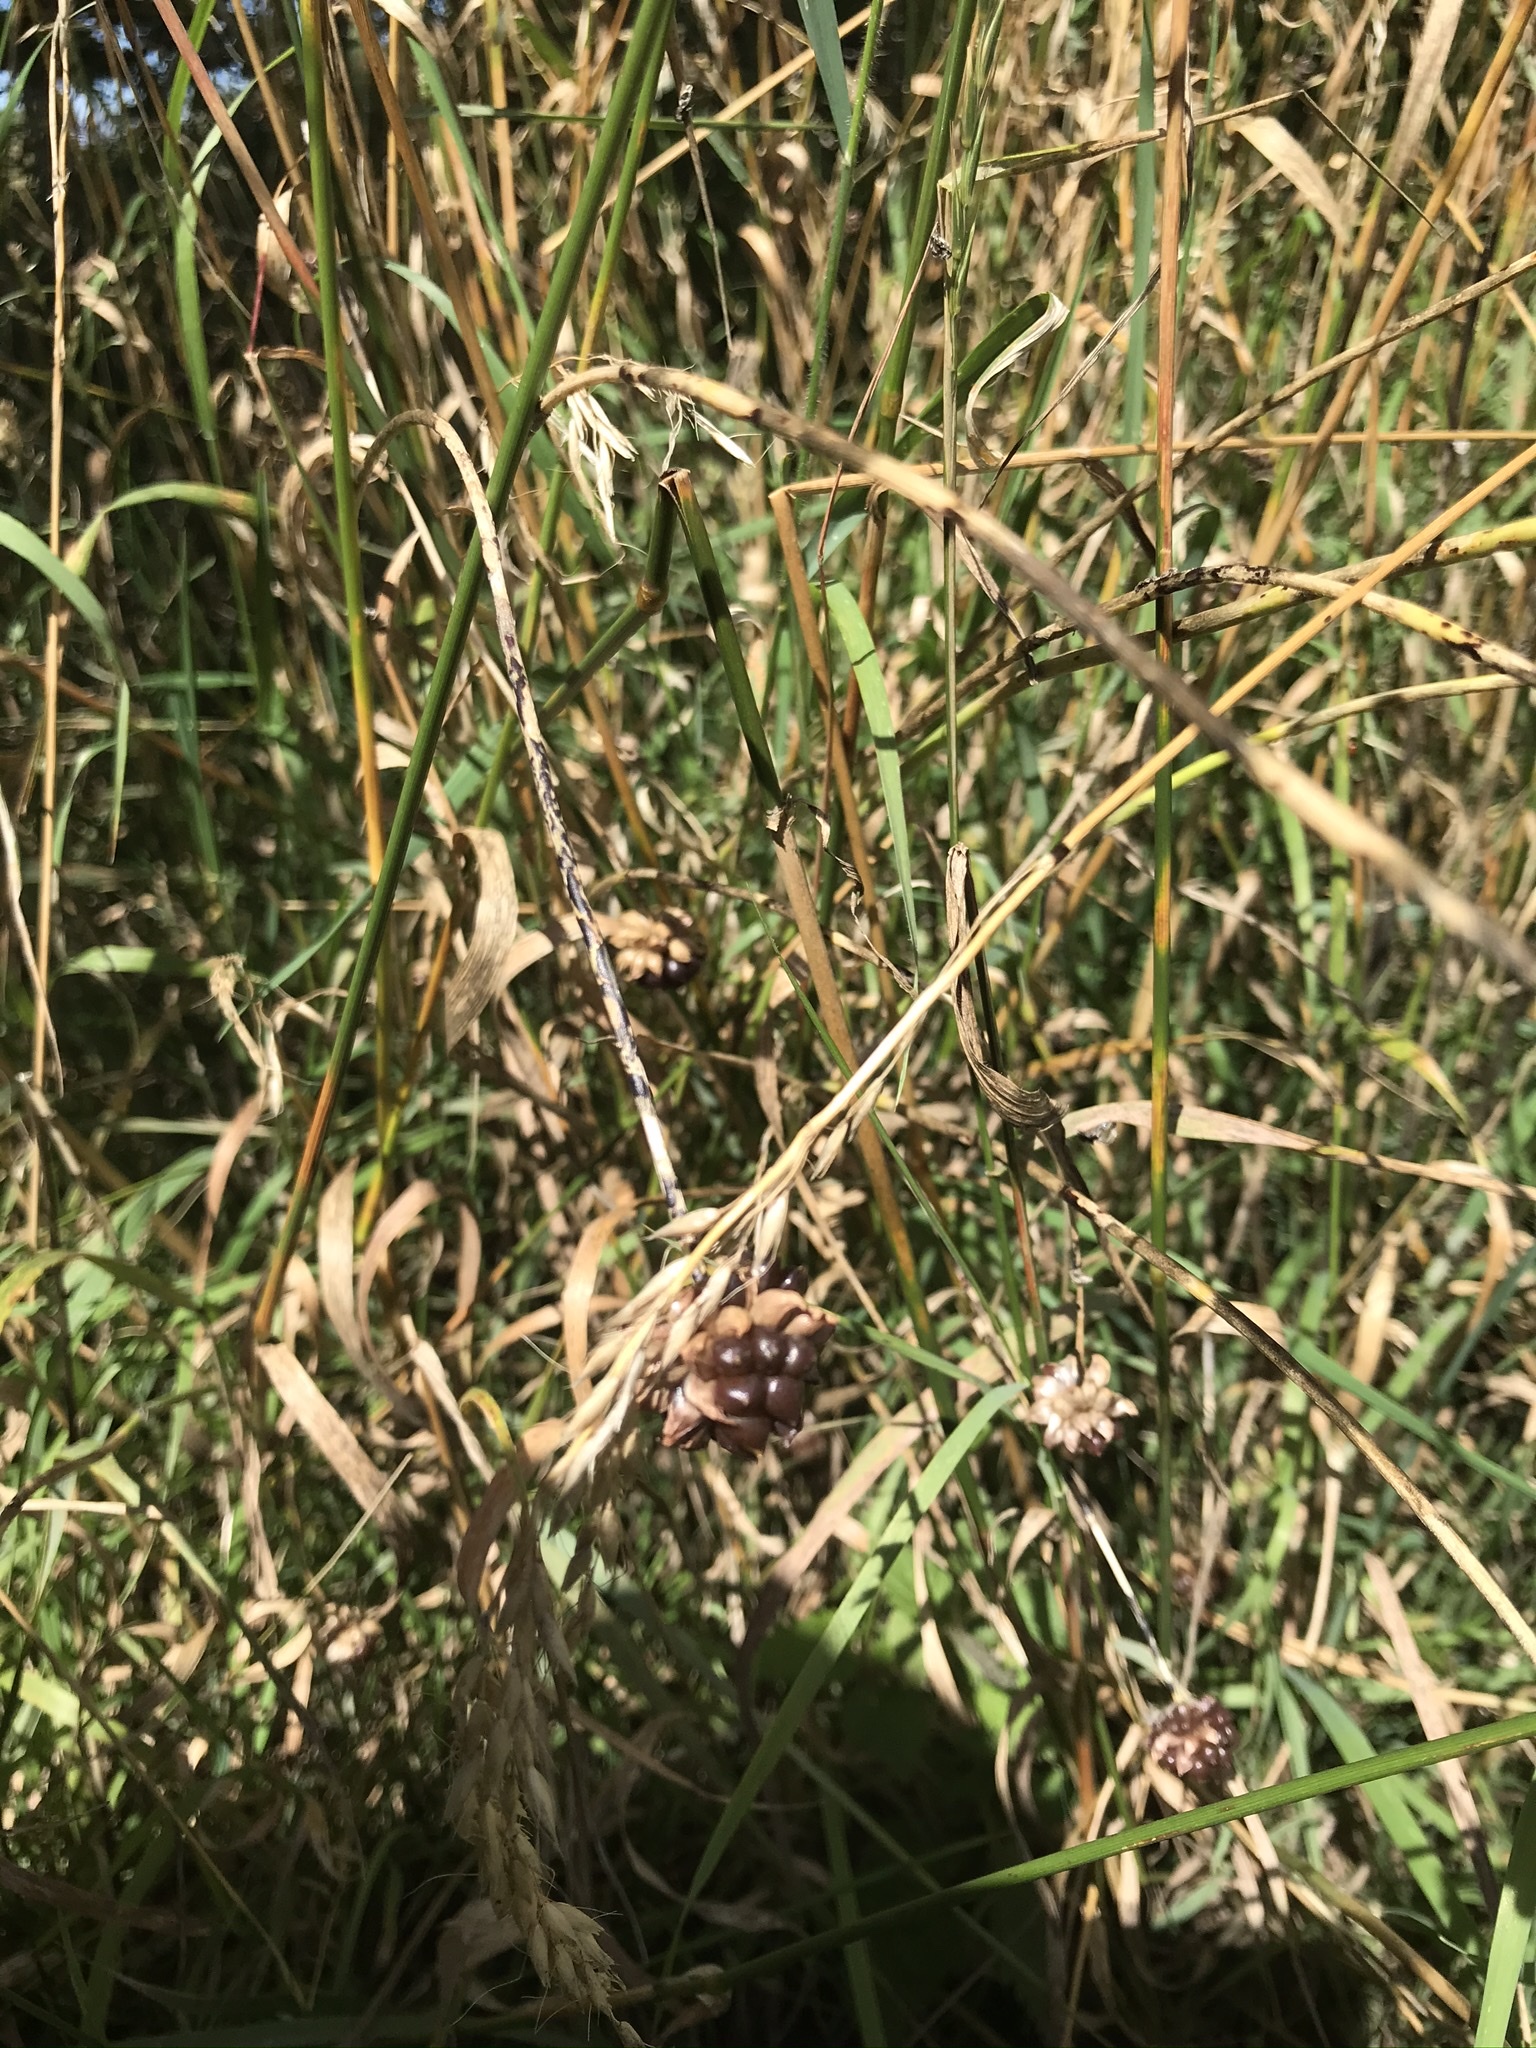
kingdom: Plantae
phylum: Tracheophyta
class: Liliopsida
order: Asparagales
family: Amaryllidaceae
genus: Allium
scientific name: Allium vineale
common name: Crow garlic
